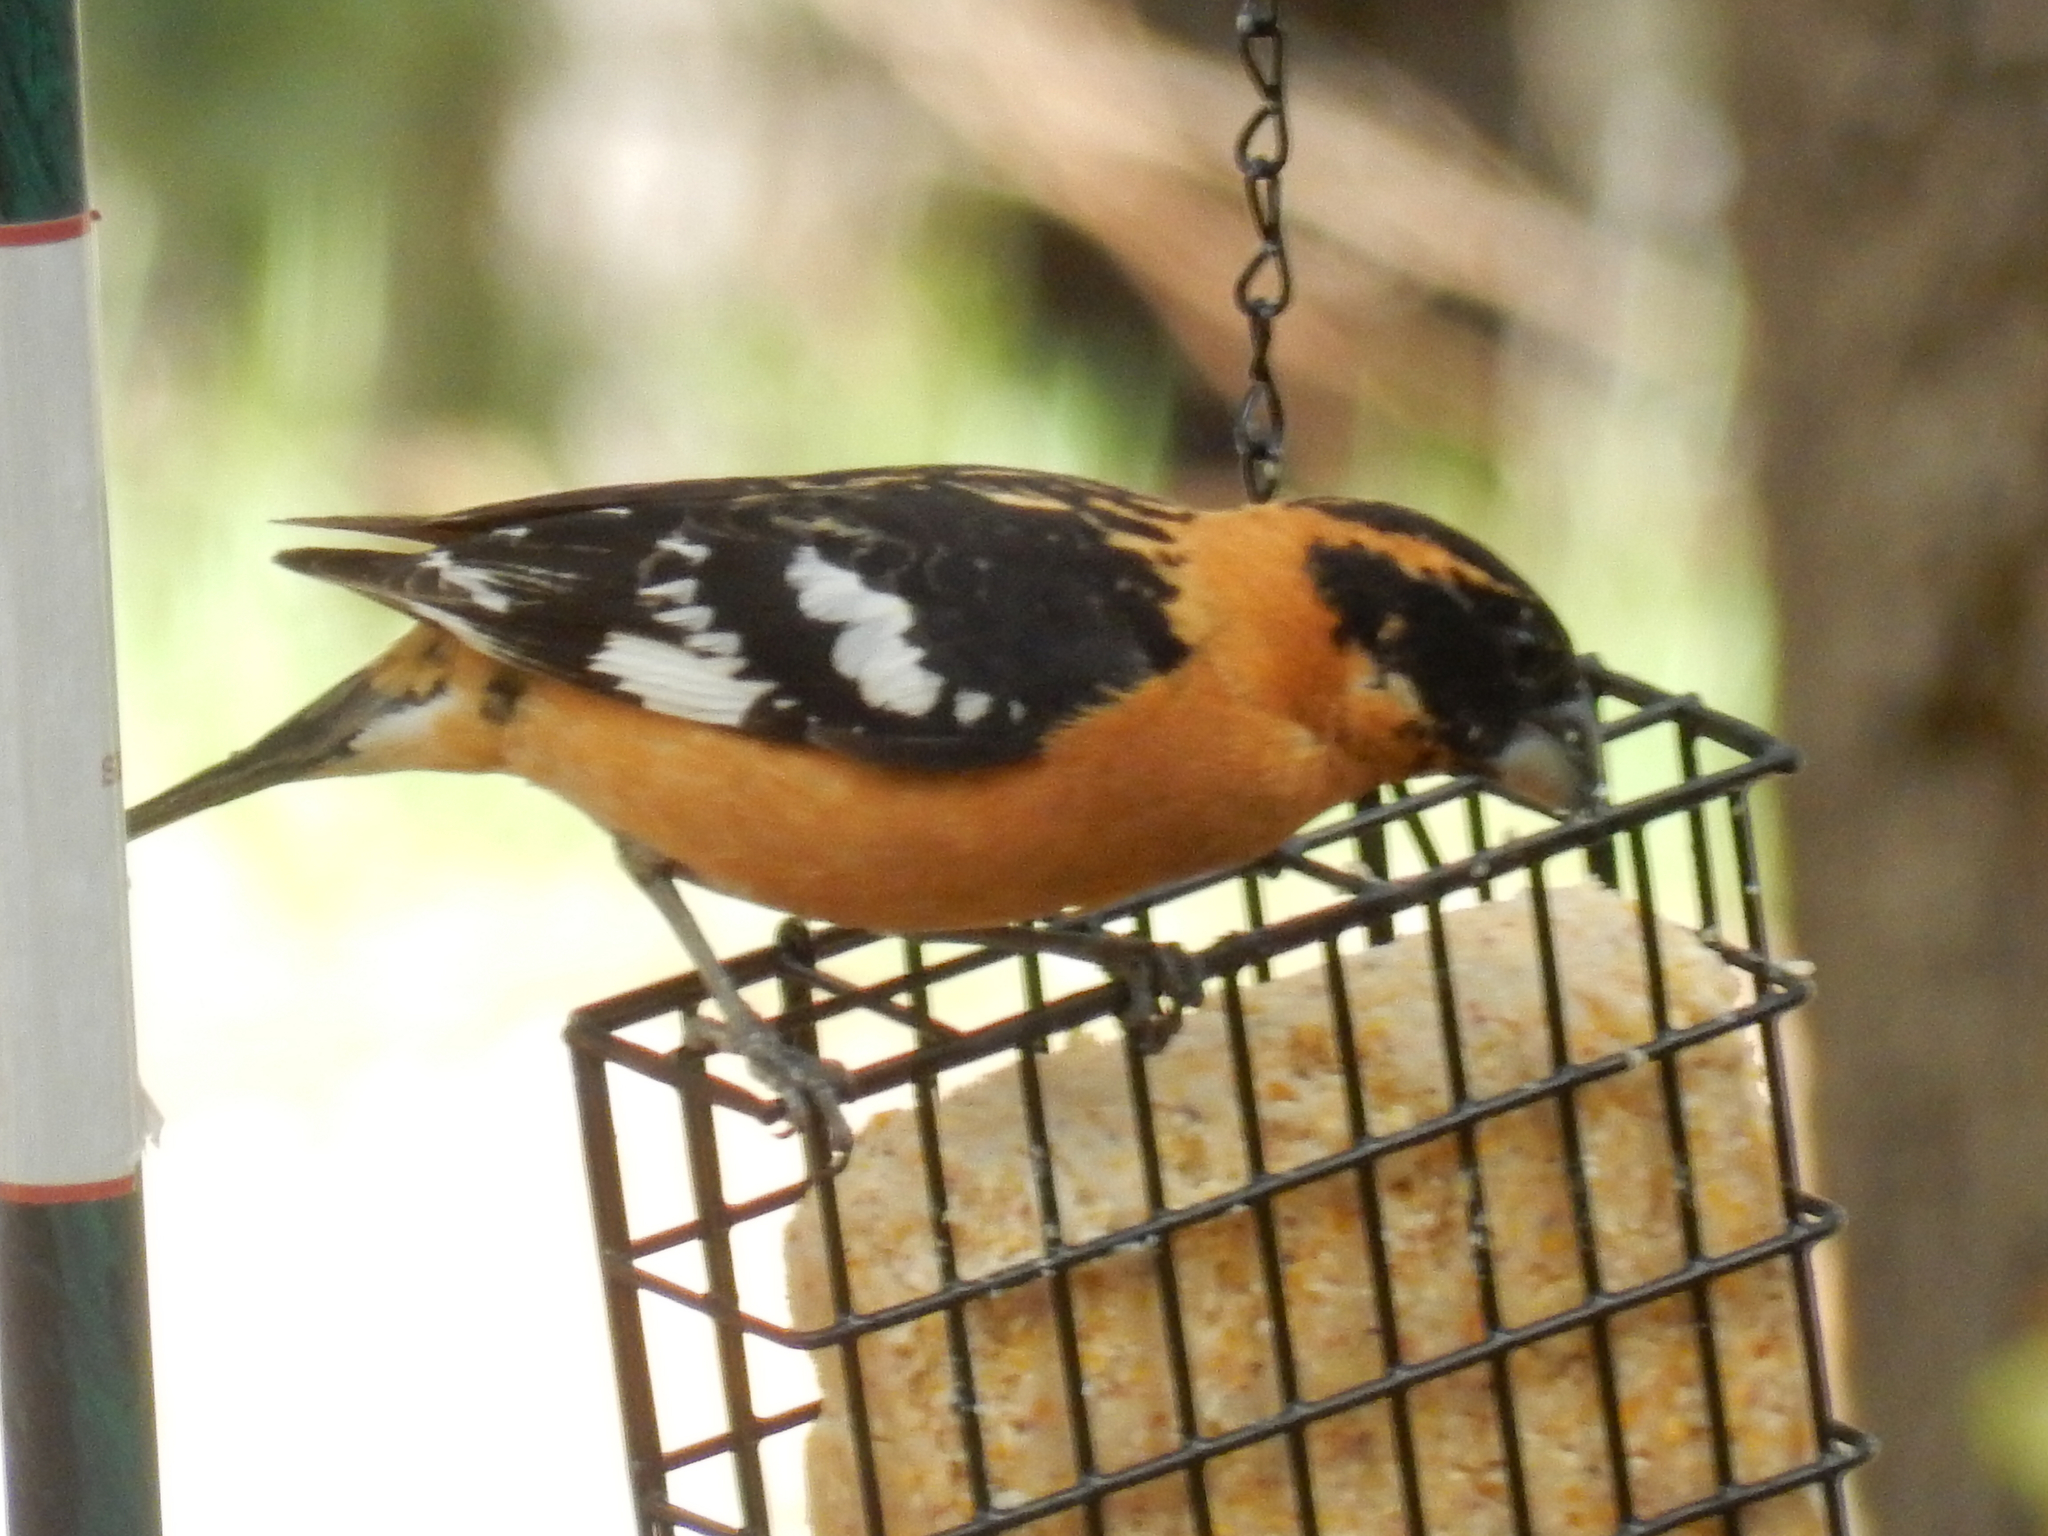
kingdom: Animalia
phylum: Chordata
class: Aves
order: Passeriformes
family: Cardinalidae
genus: Pheucticus
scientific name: Pheucticus melanocephalus
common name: Black-headed grosbeak
